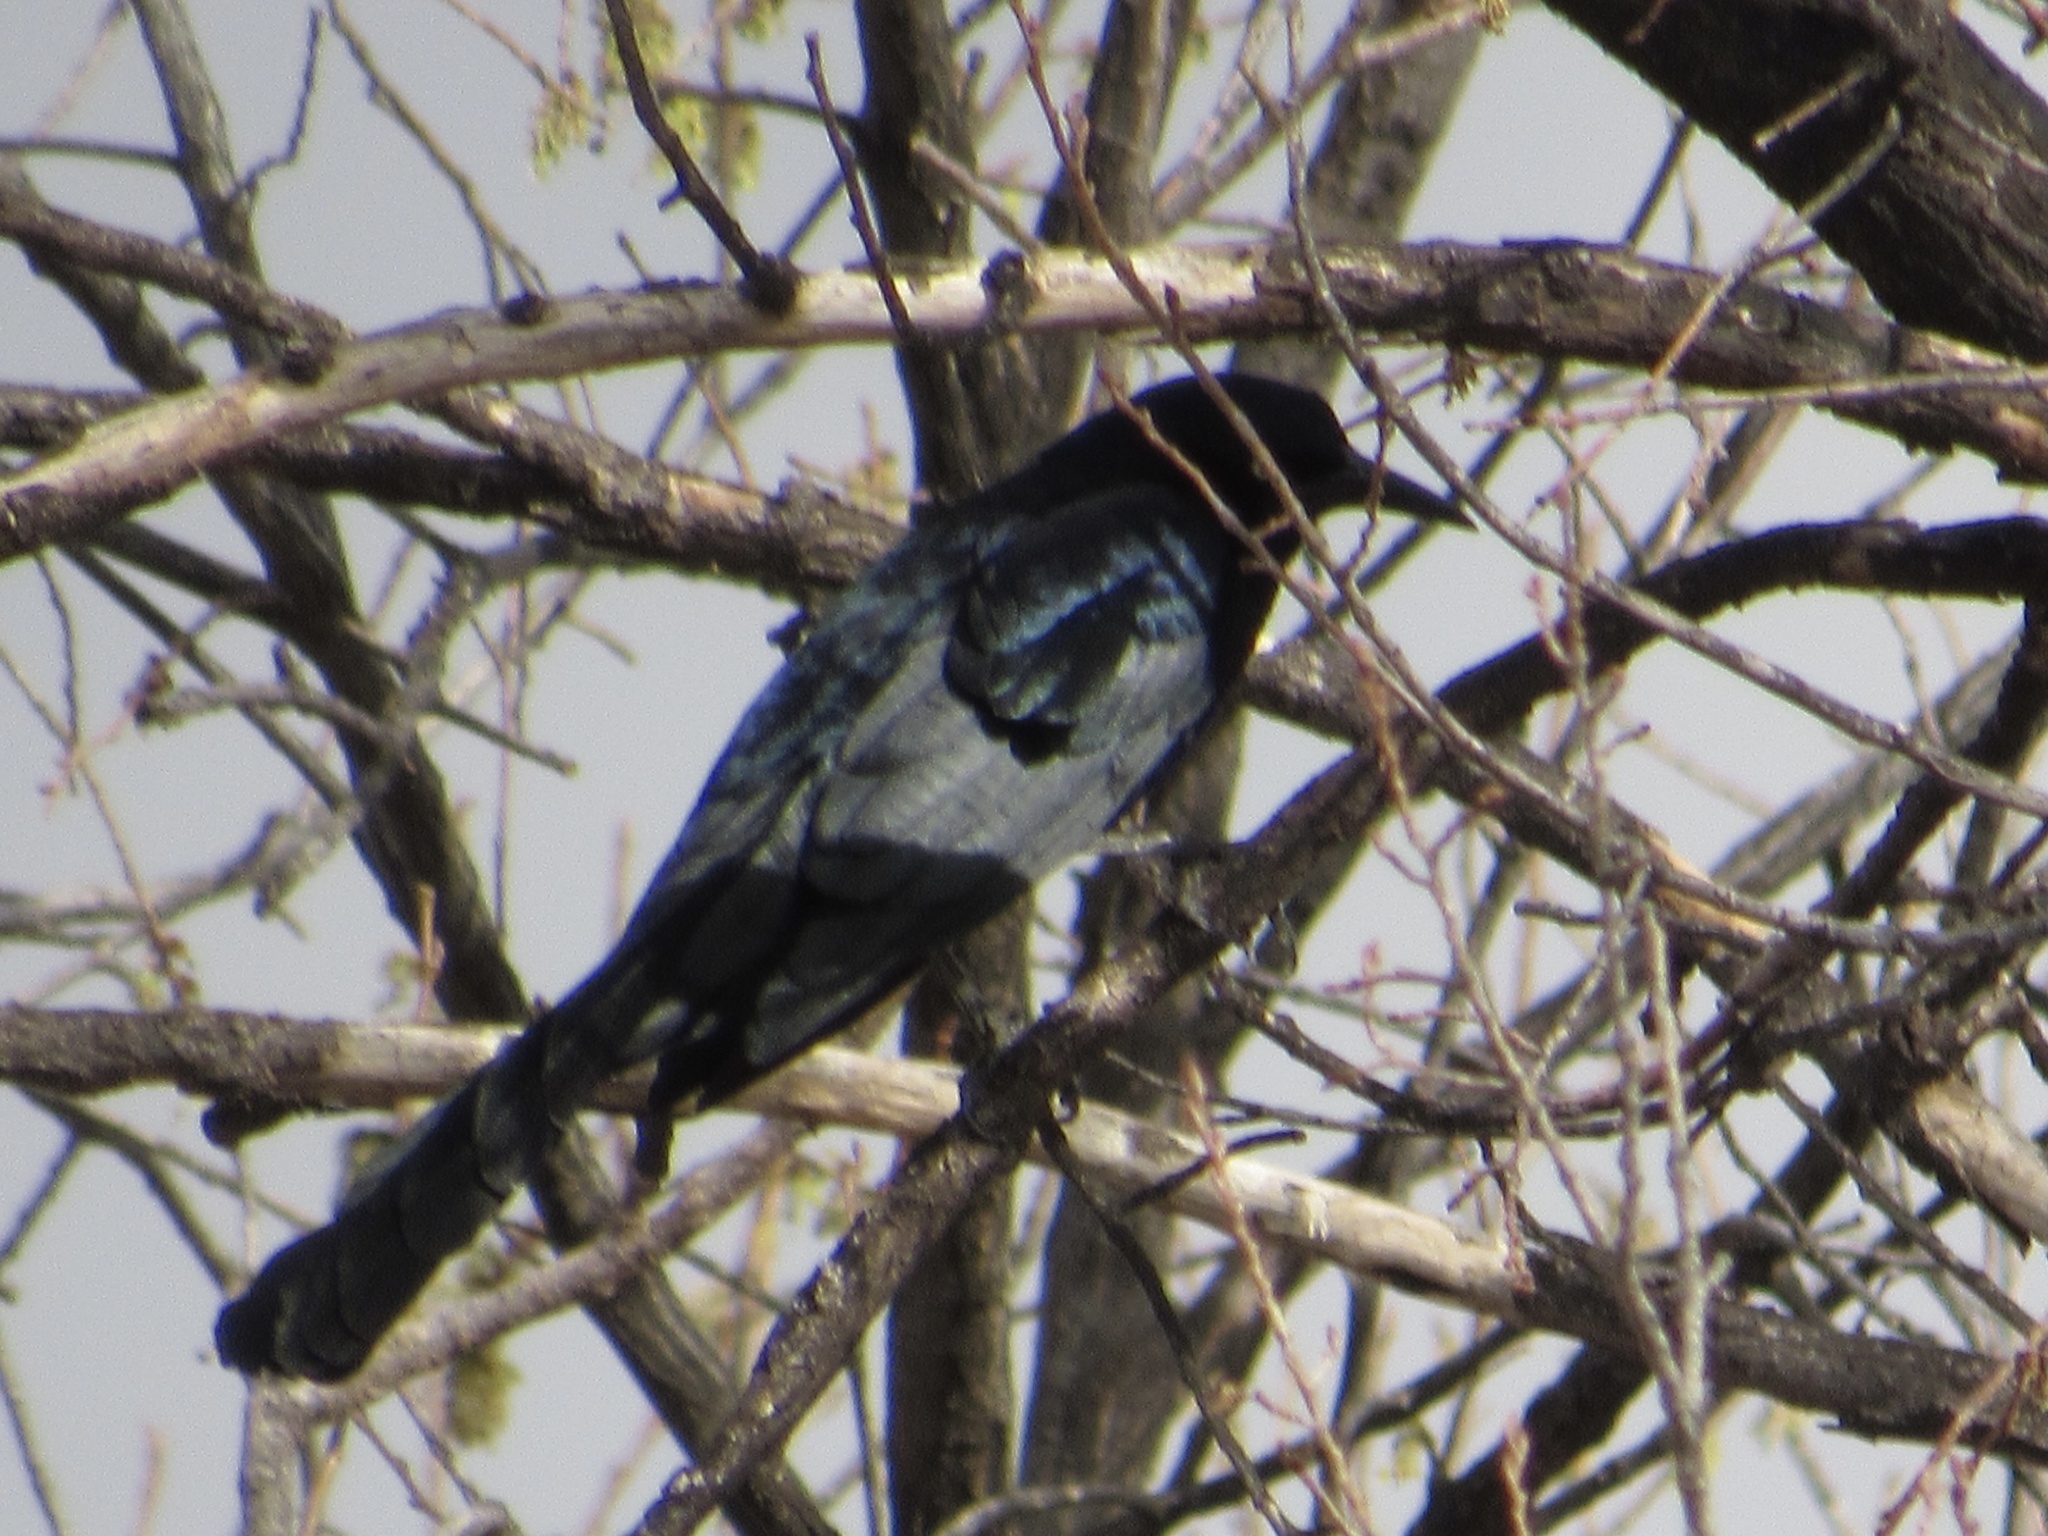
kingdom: Animalia
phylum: Chordata
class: Aves
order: Passeriformes
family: Icteridae
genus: Quiscalus
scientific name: Quiscalus mexicanus
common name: Great-tailed grackle
